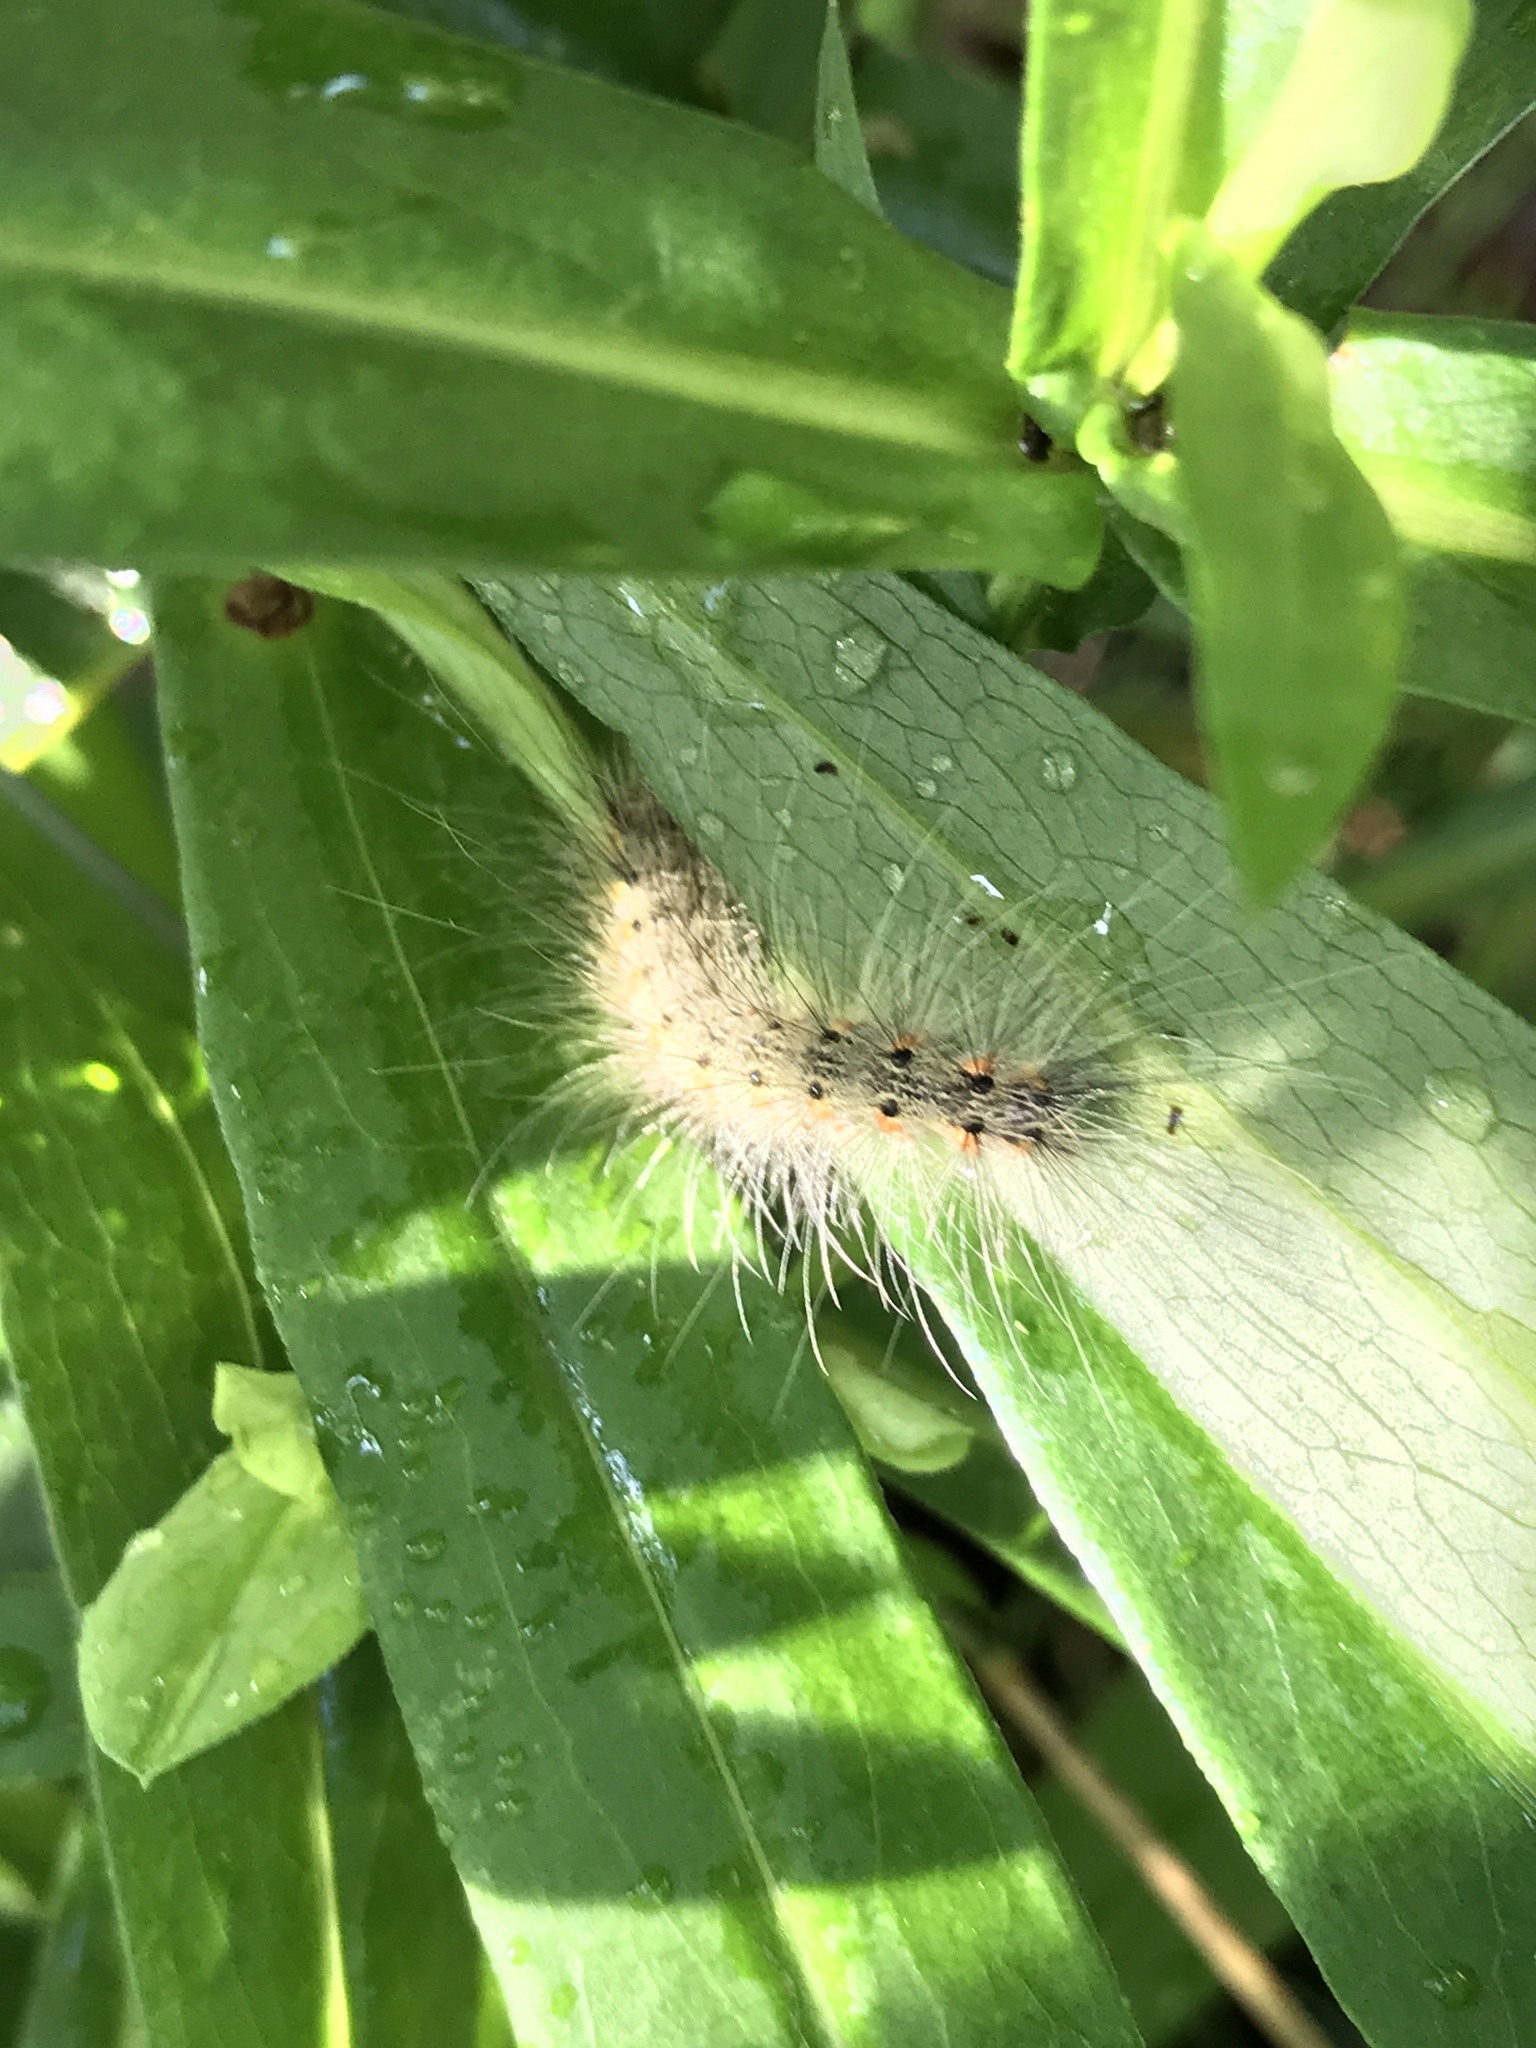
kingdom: Animalia
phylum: Arthropoda
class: Insecta
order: Lepidoptera
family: Erebidae
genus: Hyphantria
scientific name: Hyphantria cunea
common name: American white moth
